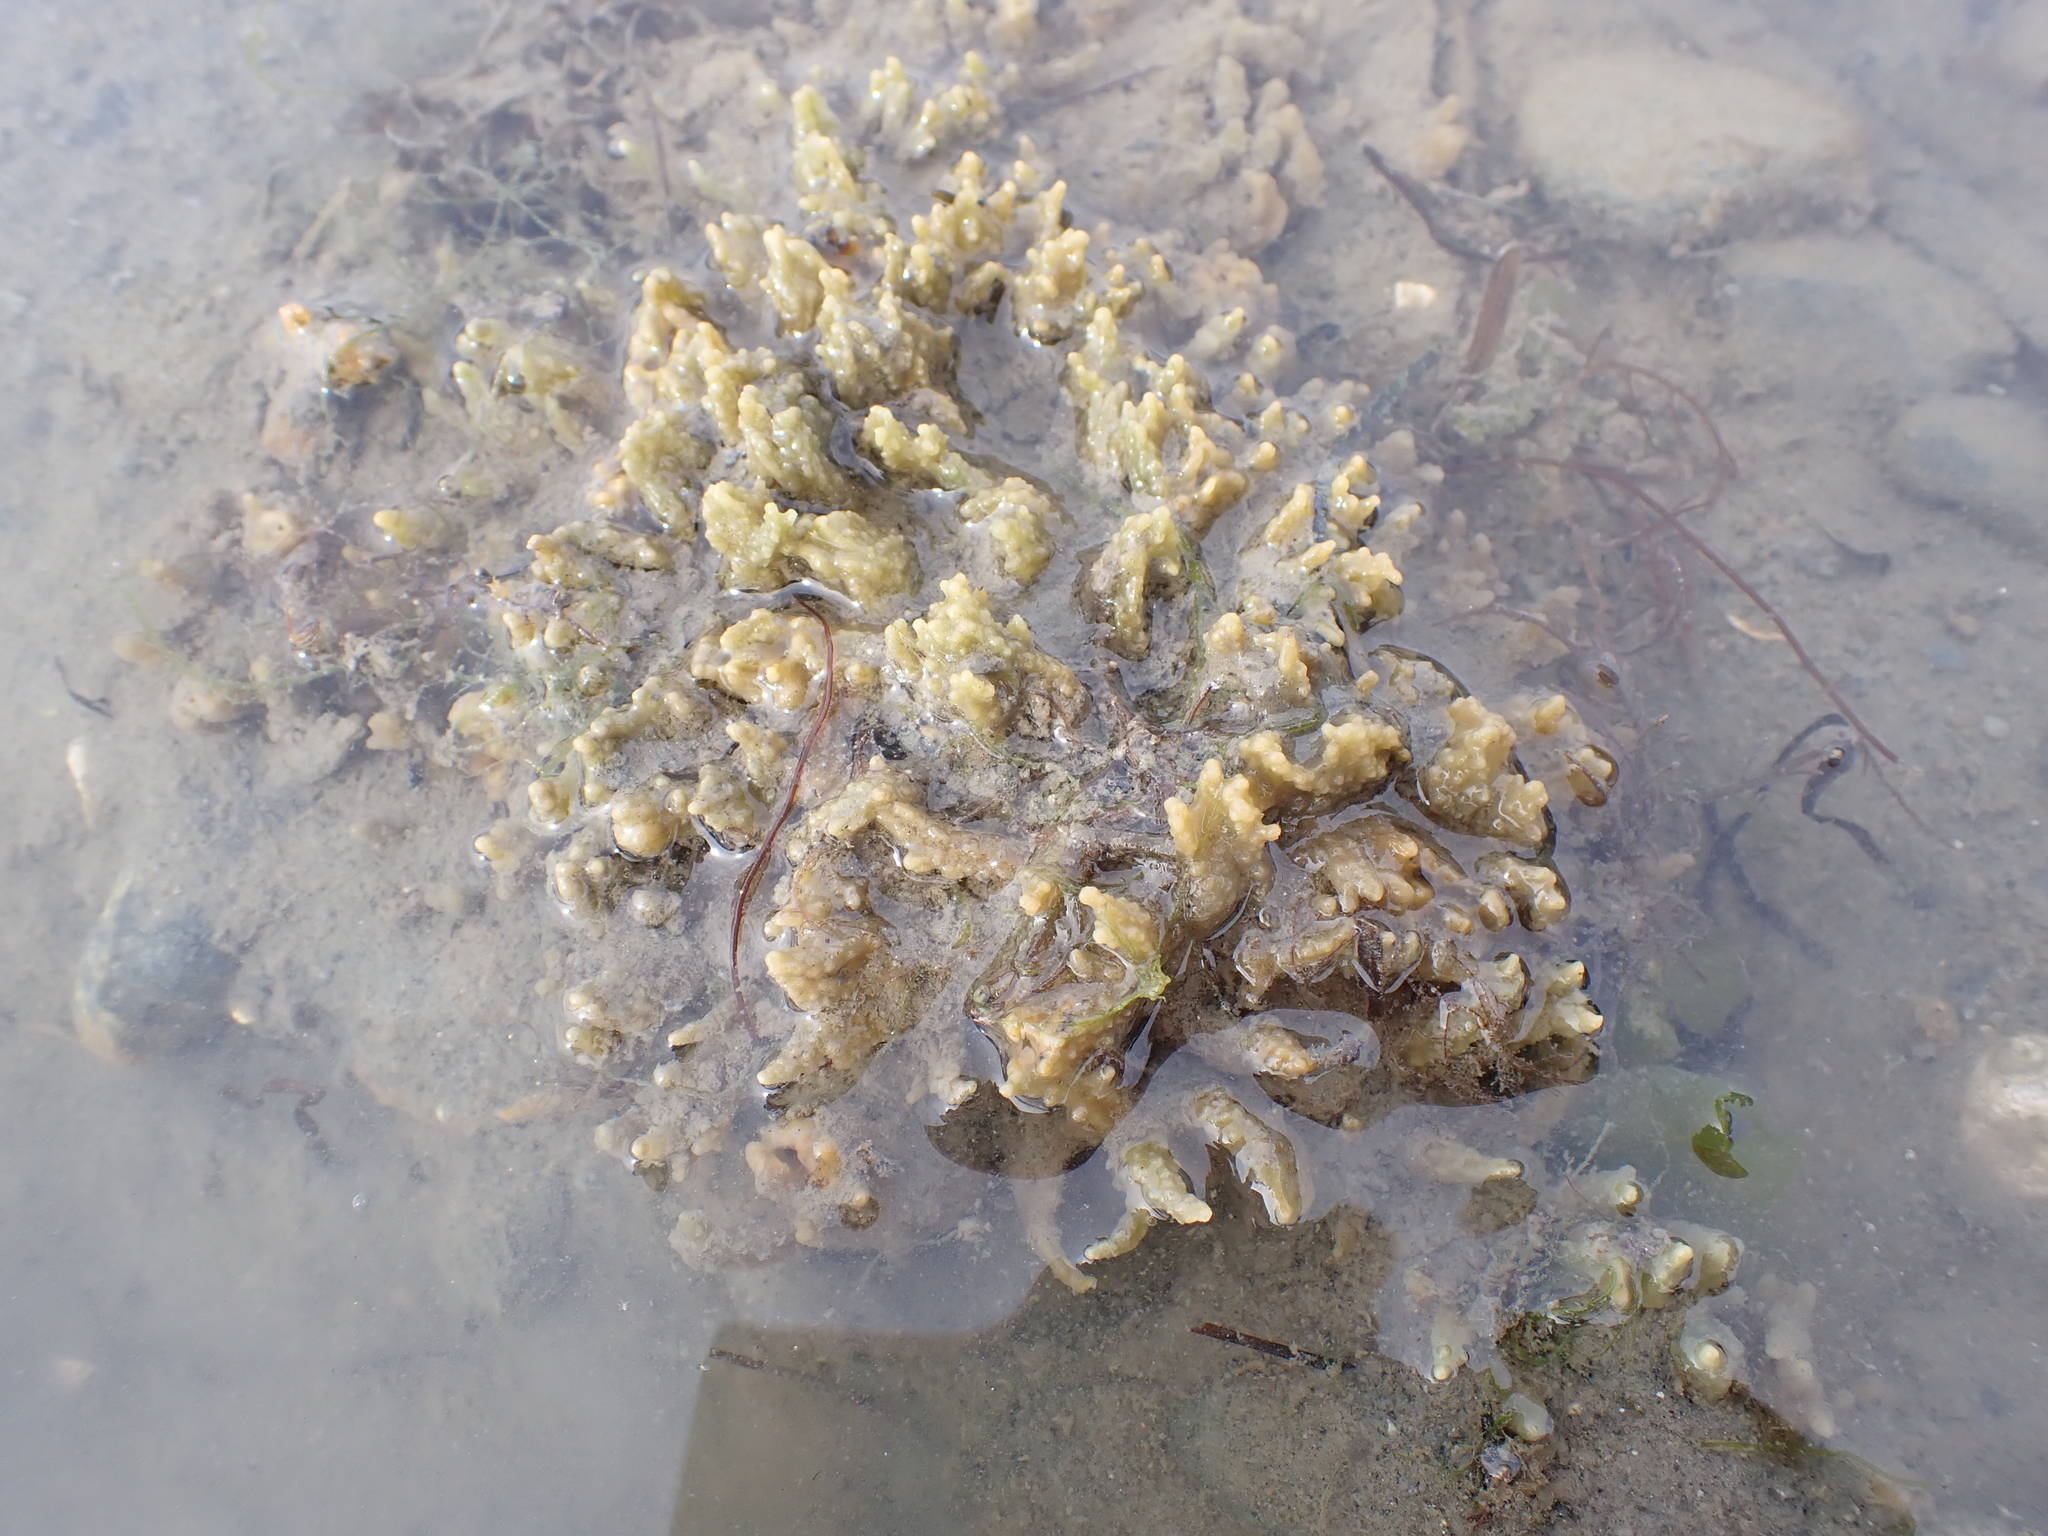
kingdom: Animalia
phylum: Porifera
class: Demospongiae
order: Suberitida
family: Halichondriidae
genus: Hymeniacidon
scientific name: Hymeniacidon perlevis
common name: Crumb-of-bread sponge
